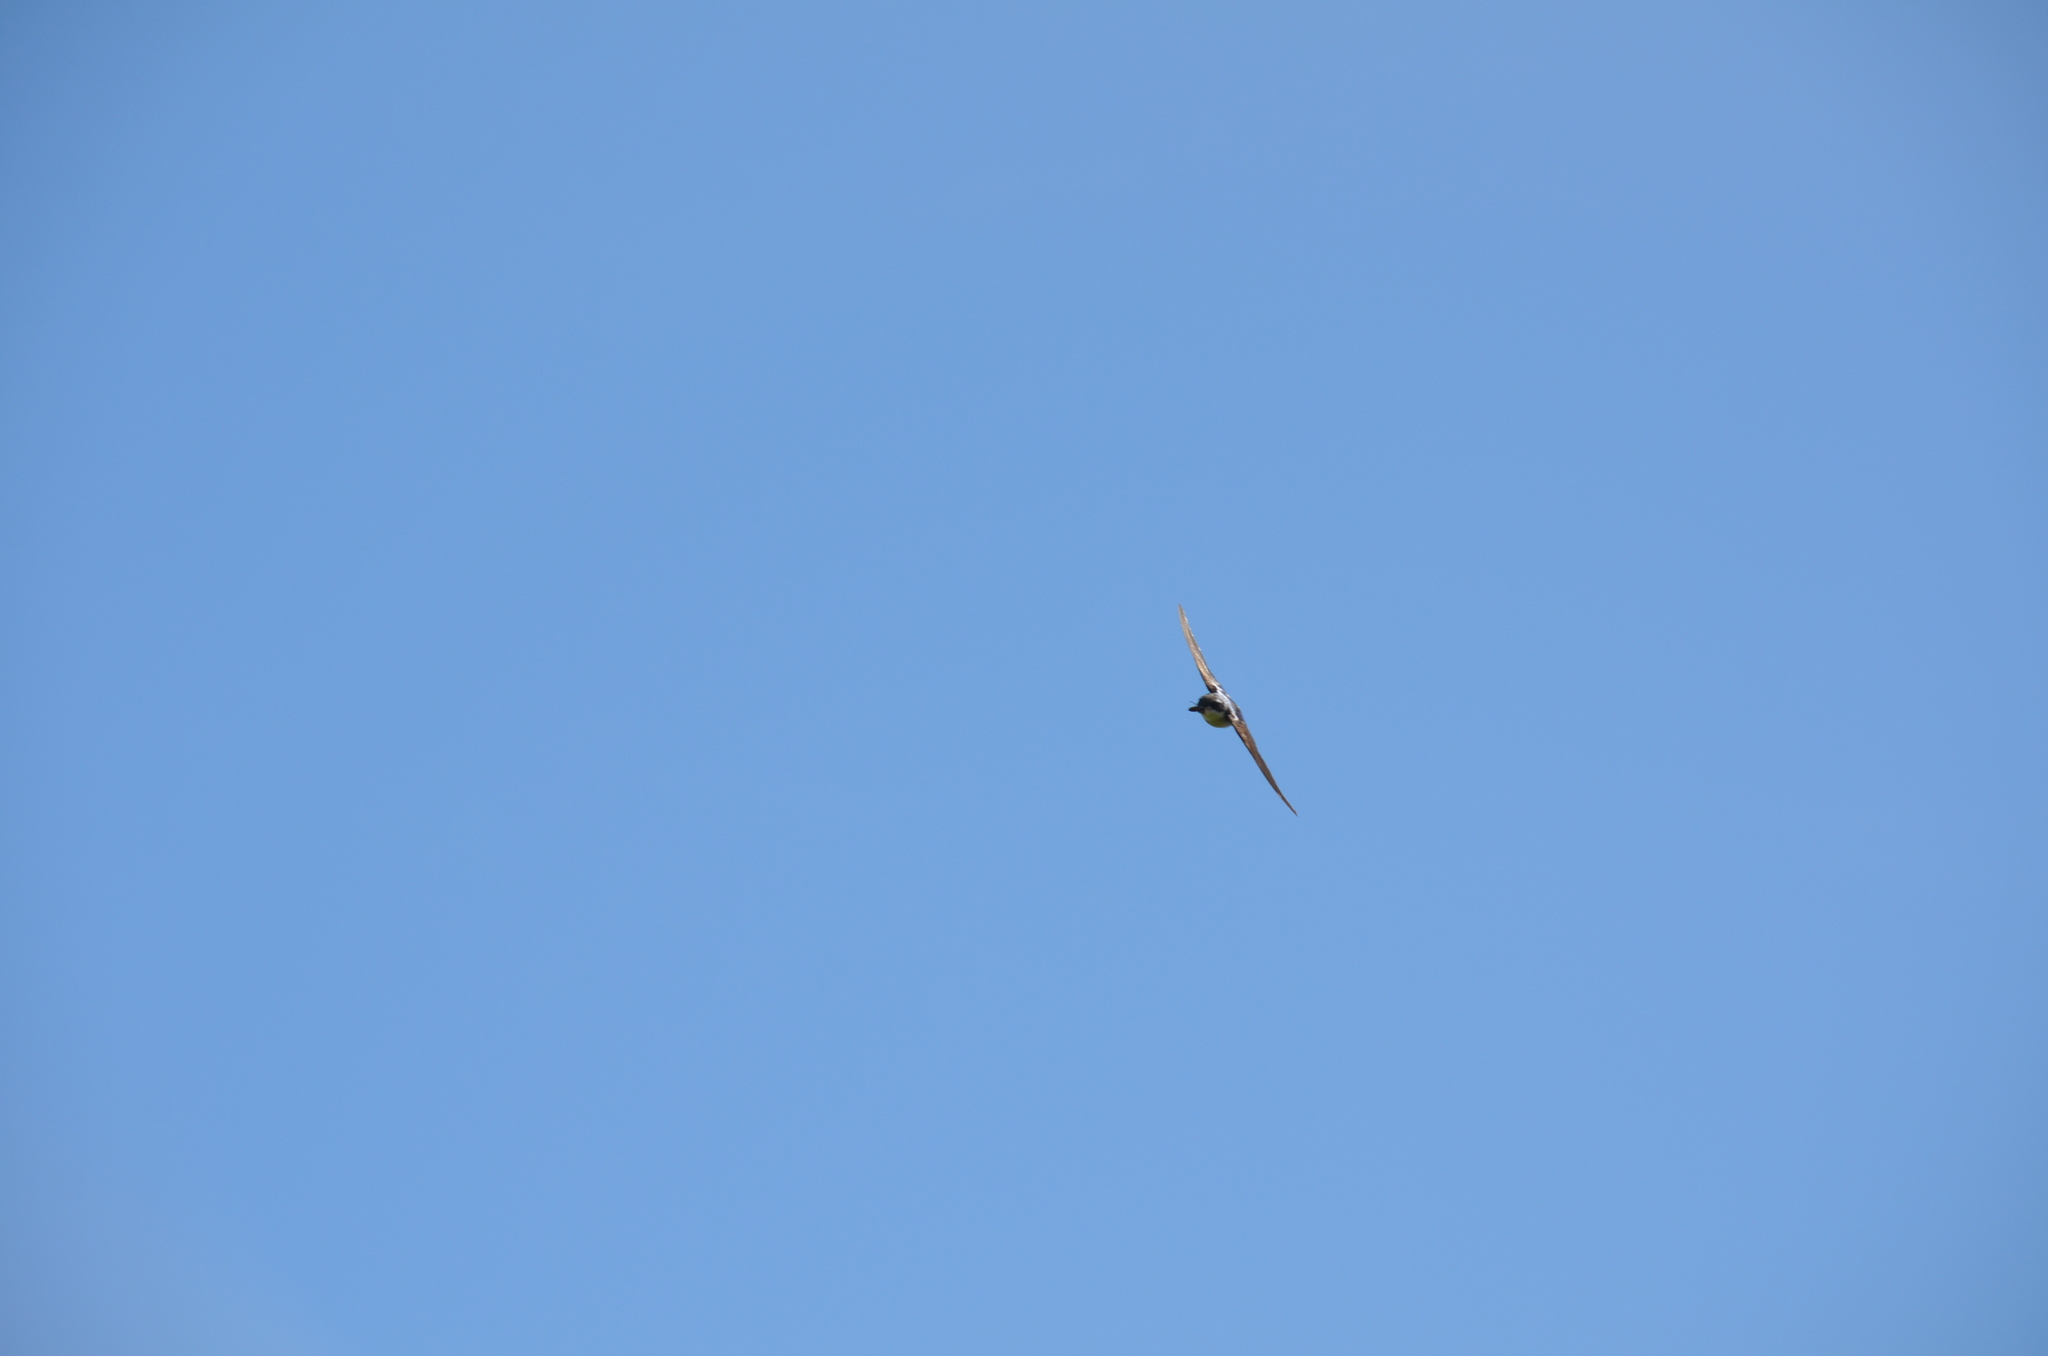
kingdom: Animalia
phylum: Chordata
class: Aves
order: Passeriformes
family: Hirundinidae
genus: Tachycineta
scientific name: Tachycineta bicolor
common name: Tree swallow
